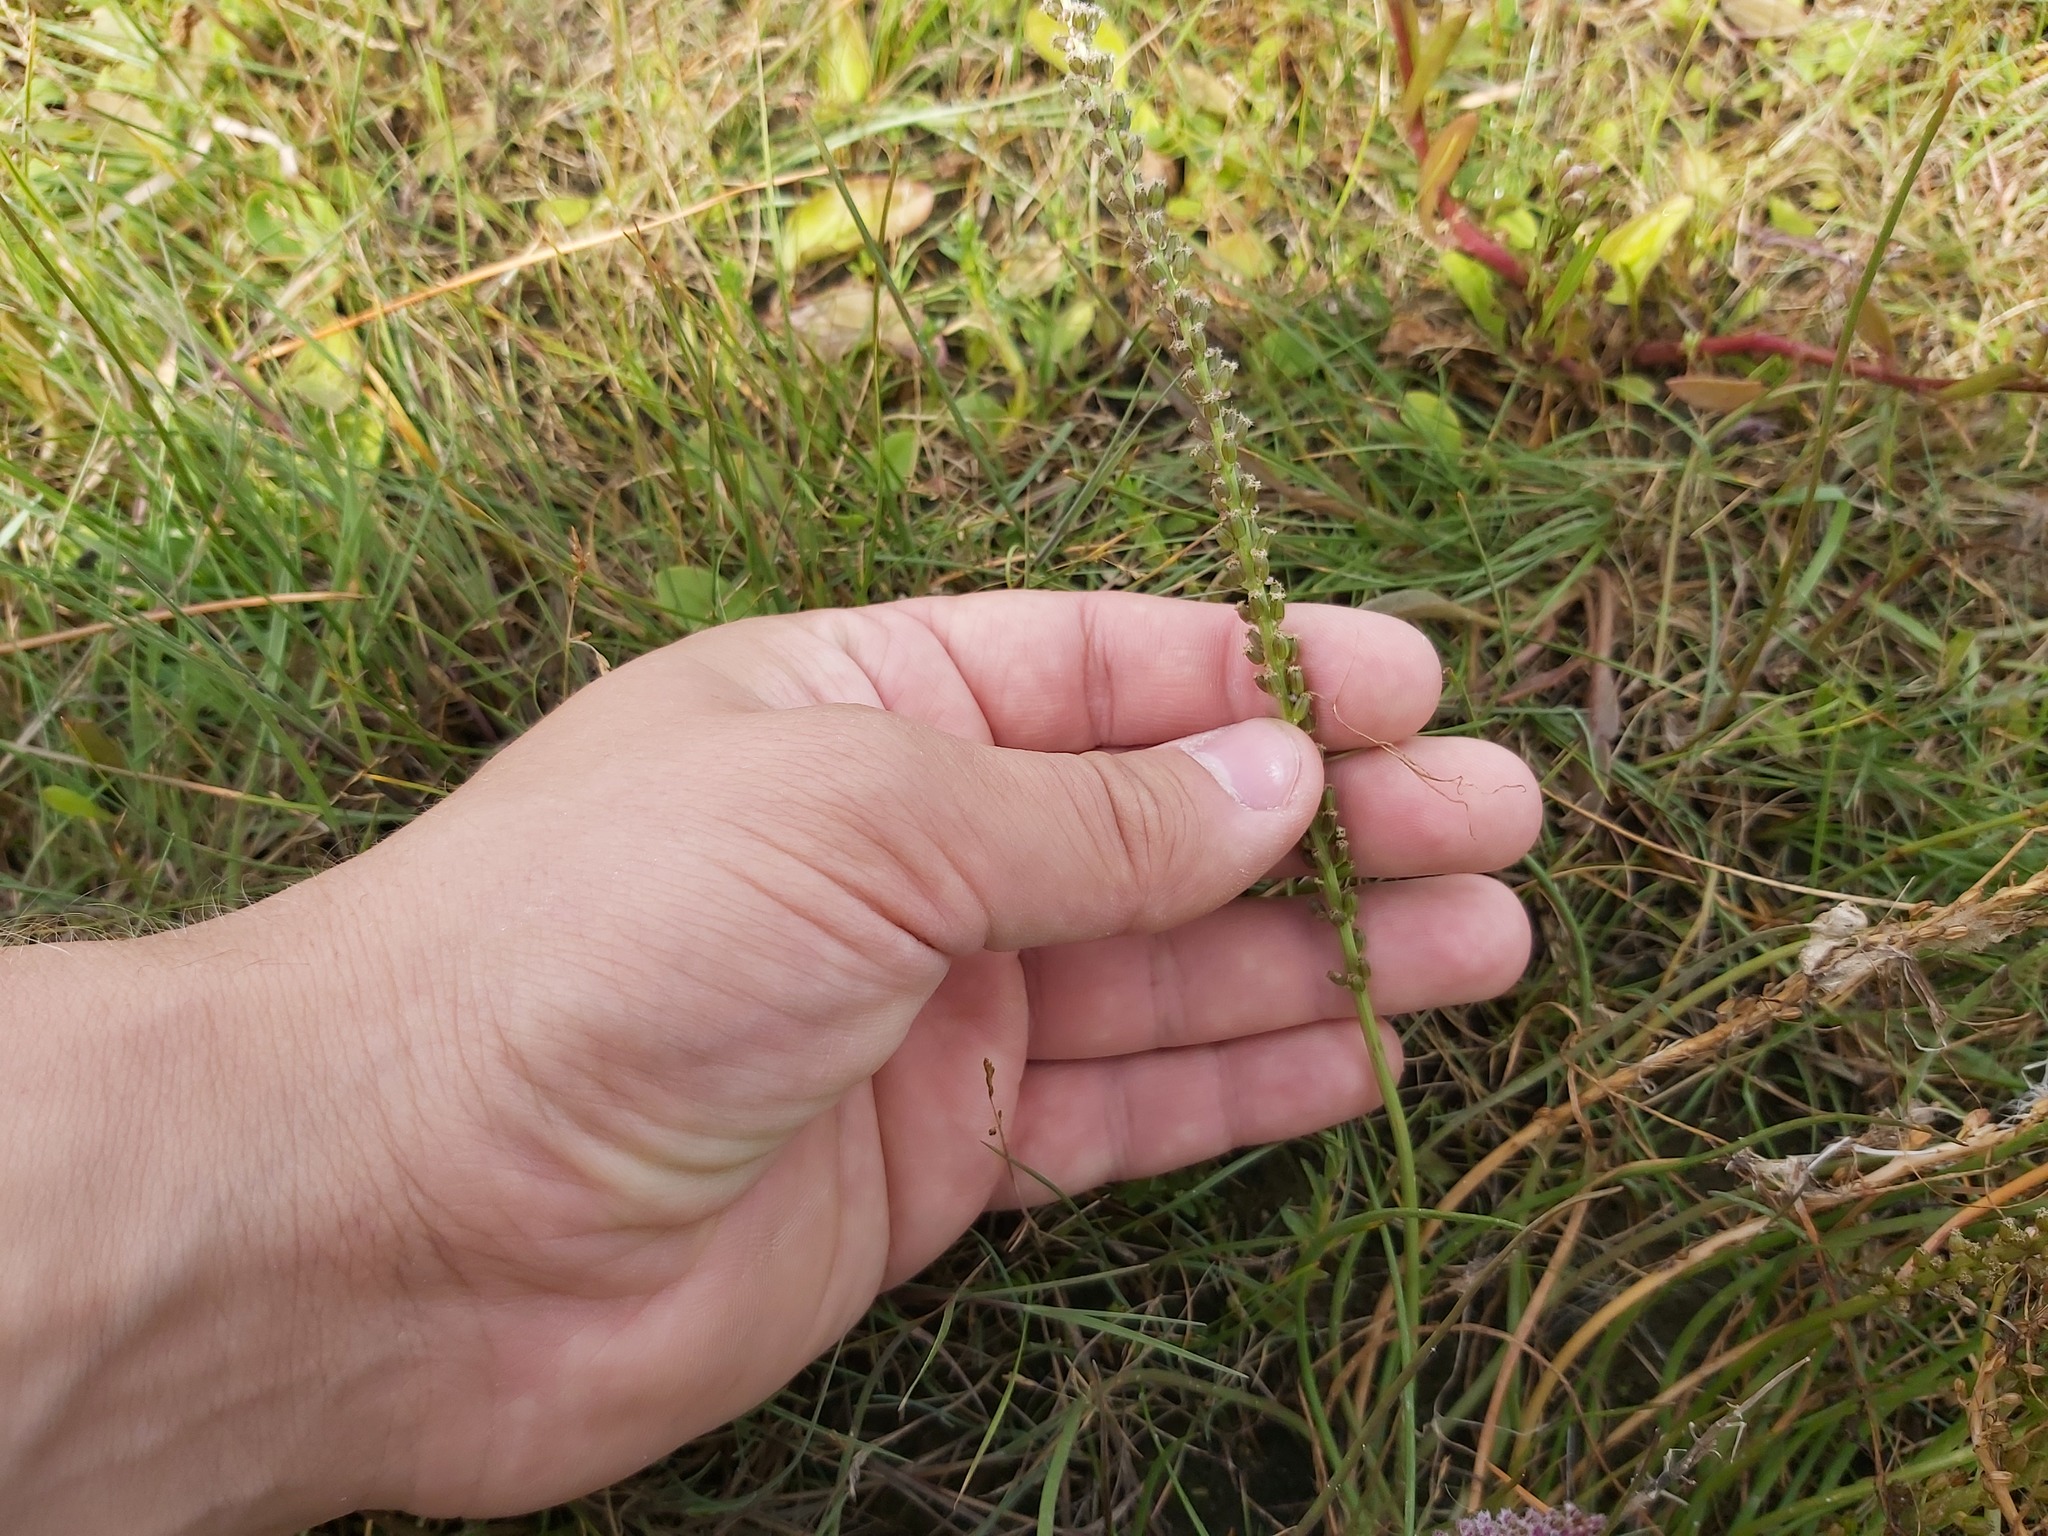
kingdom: Plantae
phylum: Tracheophyta
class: Liliopsida
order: Alismatales
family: Juncaginaceae
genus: Triglochin
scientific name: Triglochin maritima
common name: Sea arrowgrass
